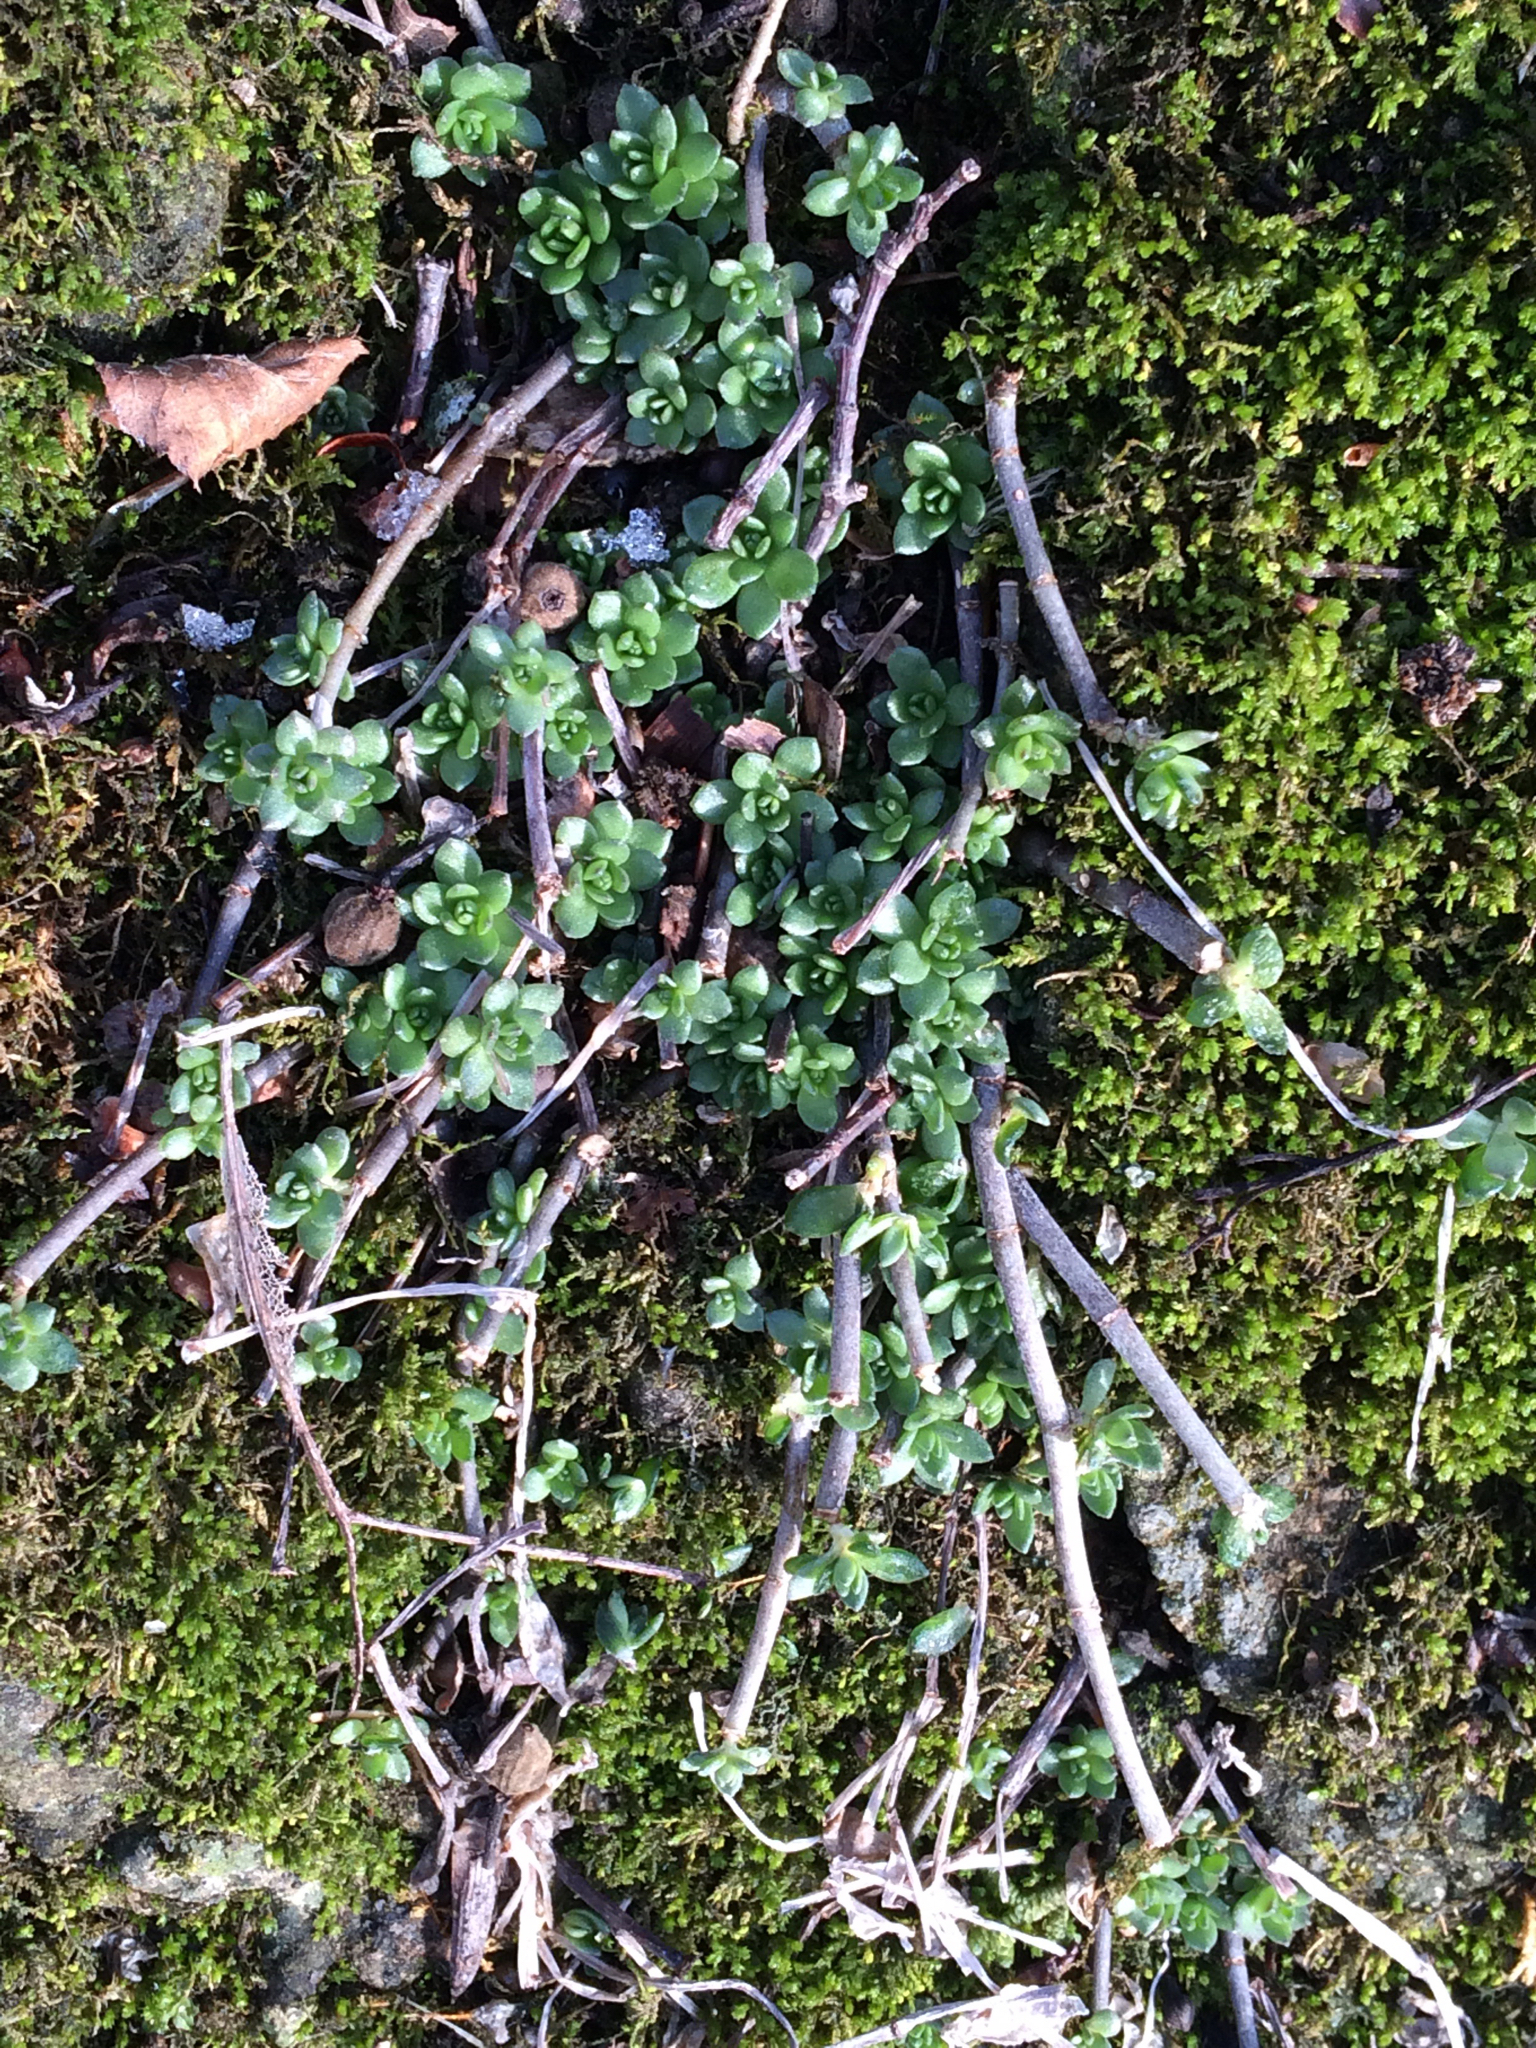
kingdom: Plantae
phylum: Tracheophyta
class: Magnoliopsida
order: Saxifragales
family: Crassulaceae
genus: Sedum
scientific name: Sedum sarmentosum
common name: Stringy stonecrop
